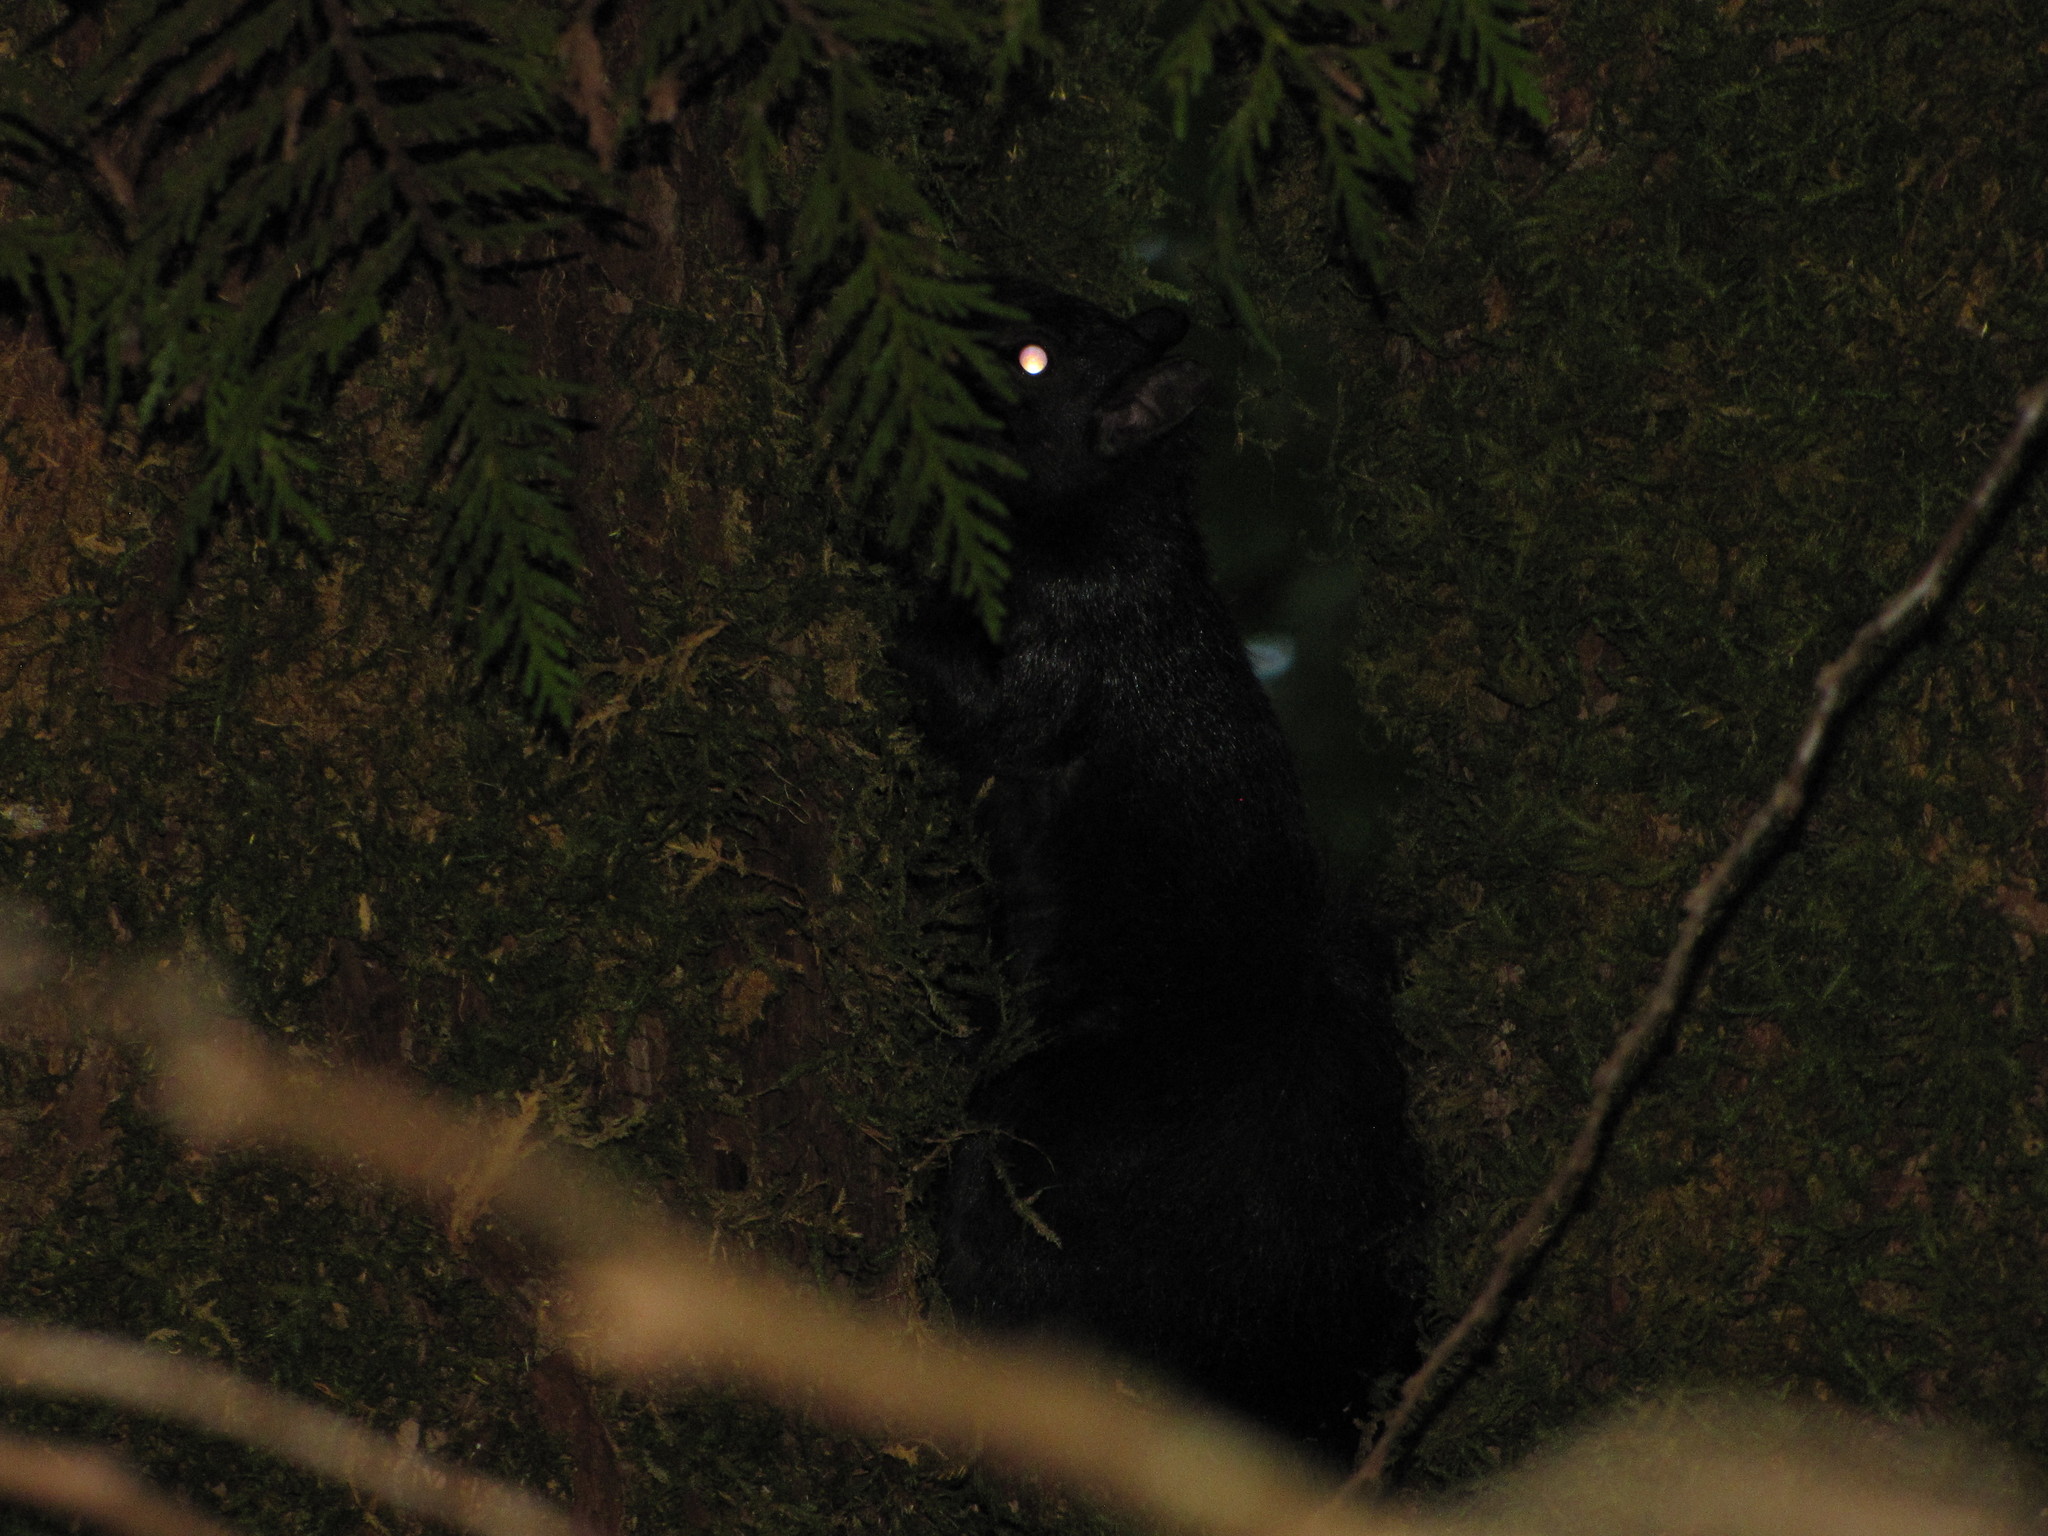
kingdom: Animalia
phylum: Chordata
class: Mammalia
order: Rodentia
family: Sciuridae
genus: Sciurus
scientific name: Sciurus carolinensis
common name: Eastern gray squirrel
